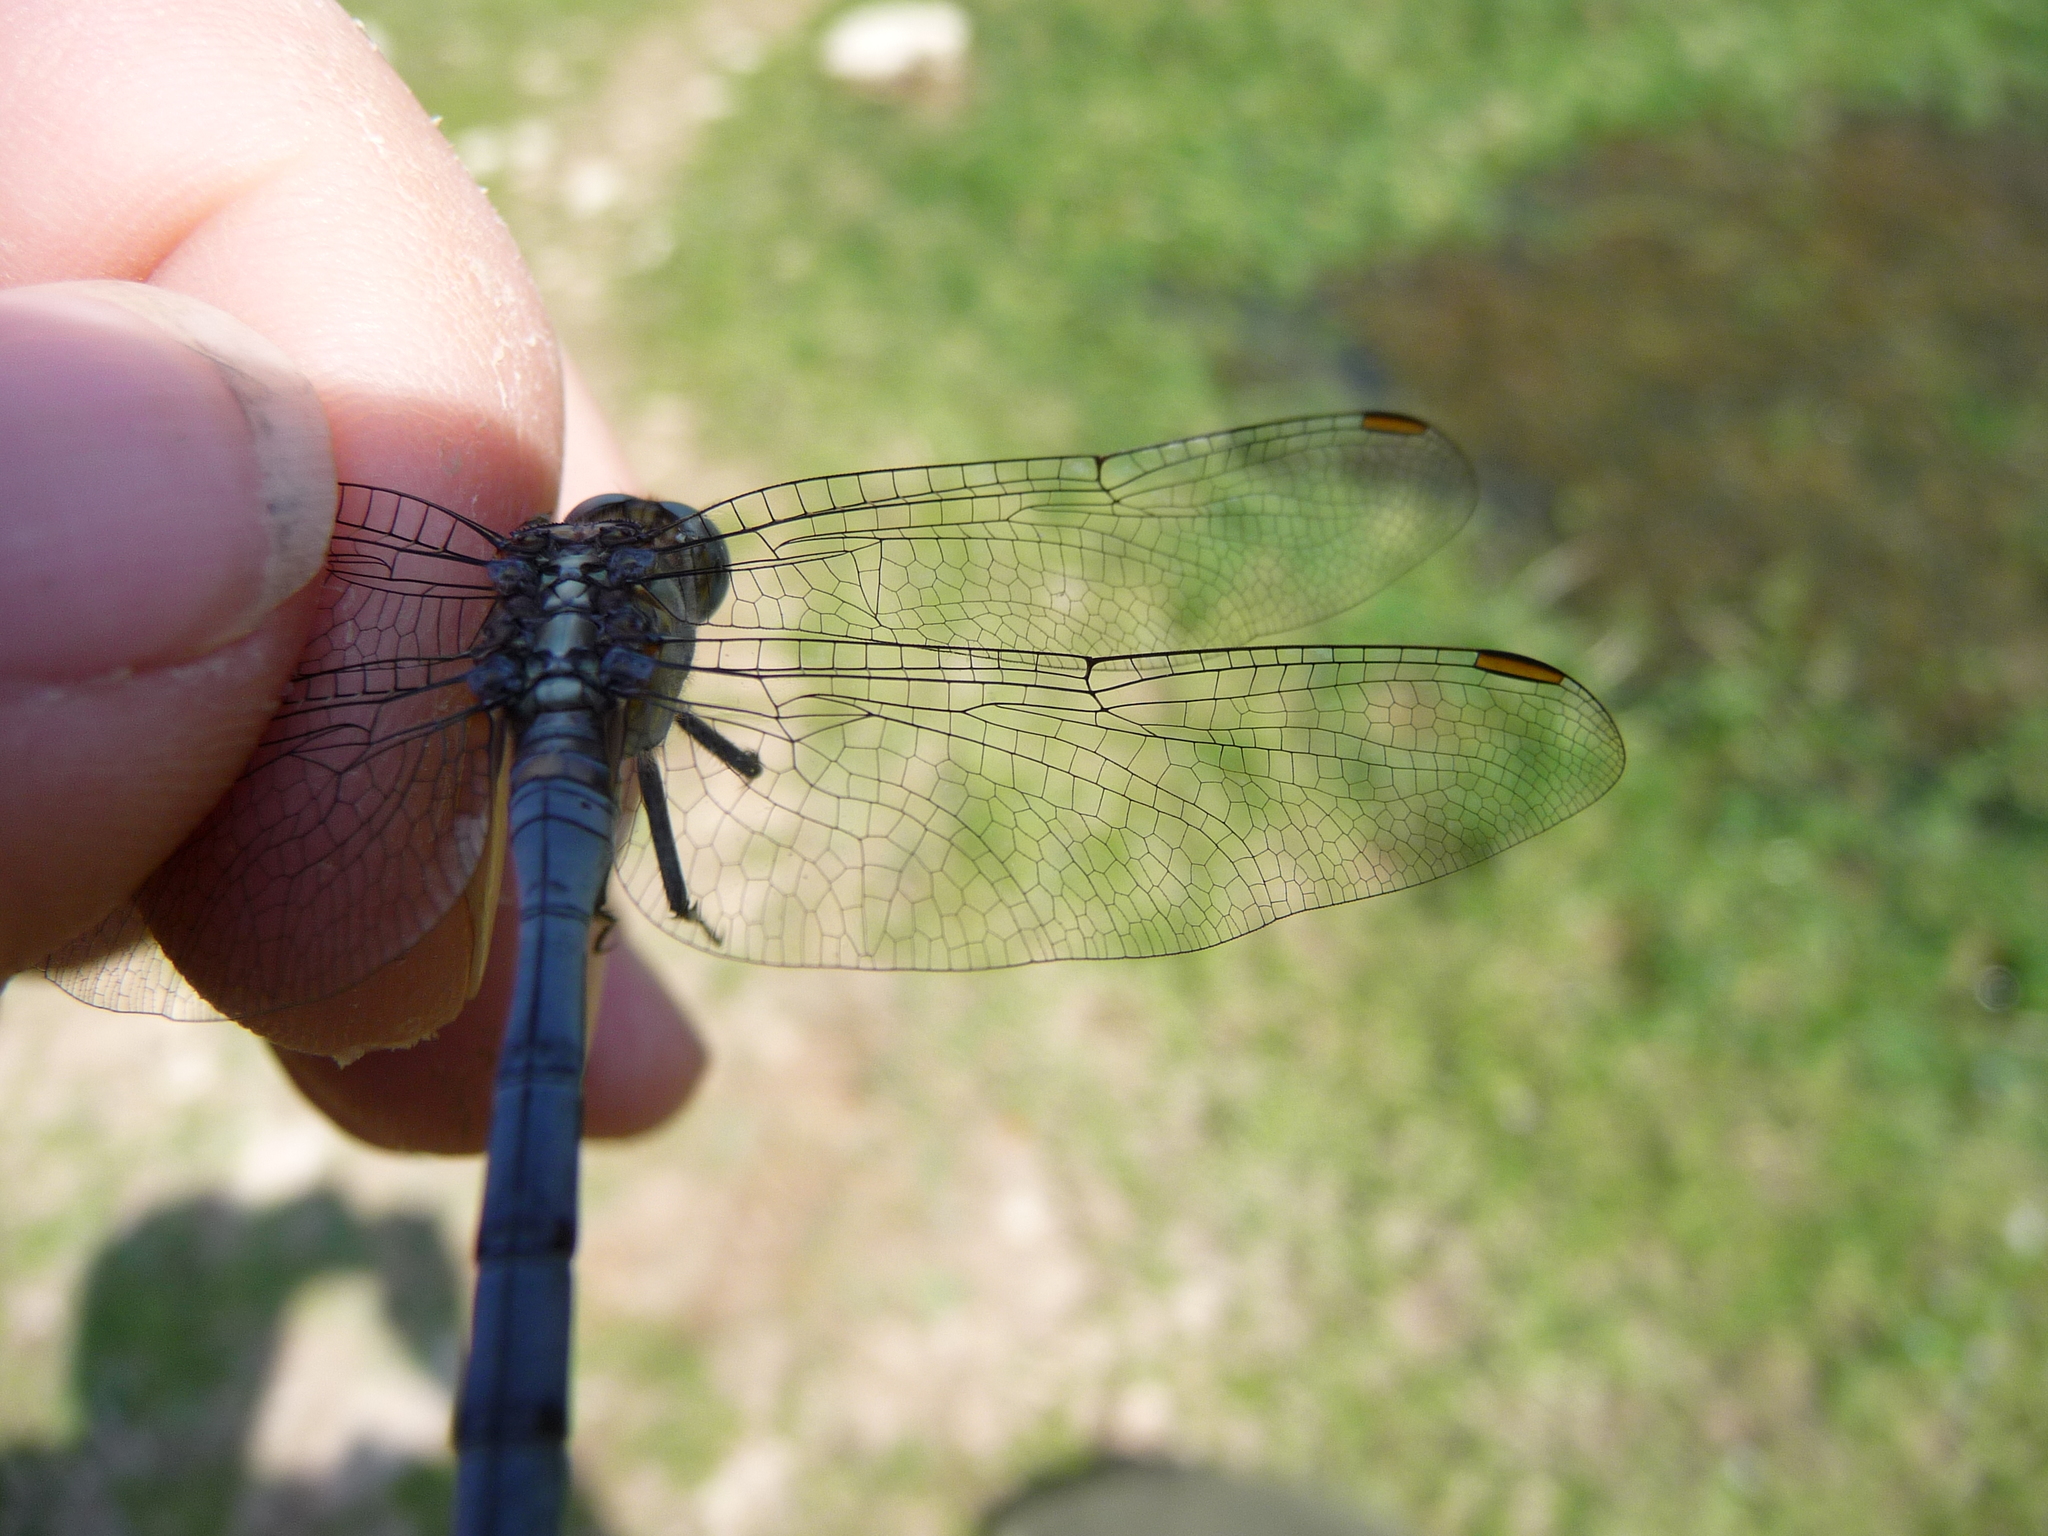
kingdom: Animalia
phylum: Arthropoda
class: Insecta
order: Odonata
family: Libellulidae
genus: Orthetrum
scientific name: Orthetrum chrysostigma
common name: Epaulet skimmer
